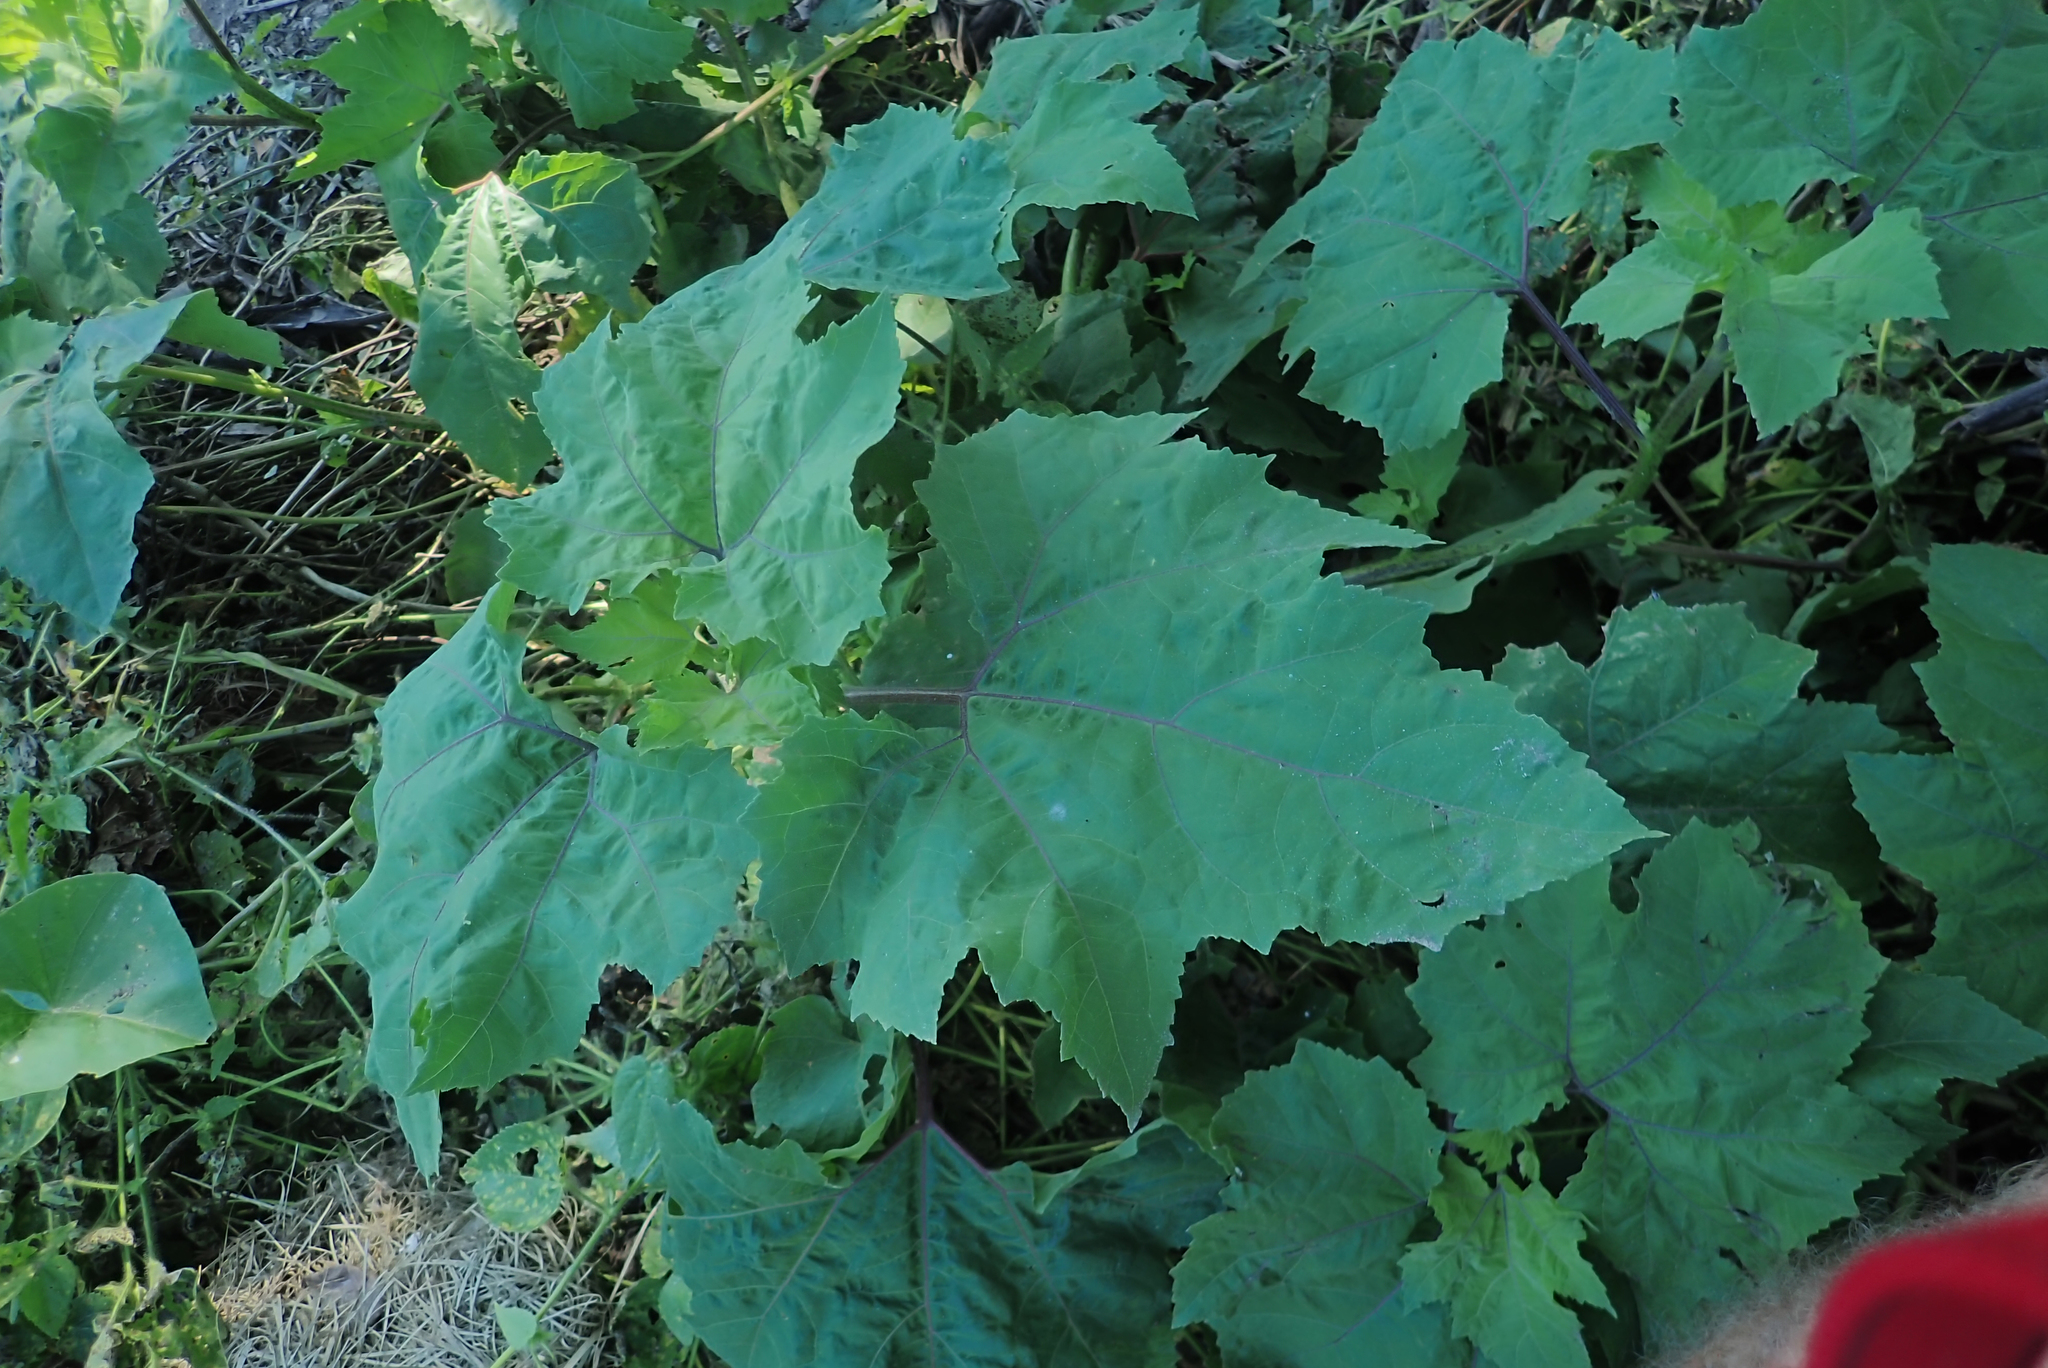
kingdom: Plantae
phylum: Tracheophyta
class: Magnoliopsida
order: Asterales
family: Asteraceae
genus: Xanthium
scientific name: Xanthium strumarium
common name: Rough cocklebur
